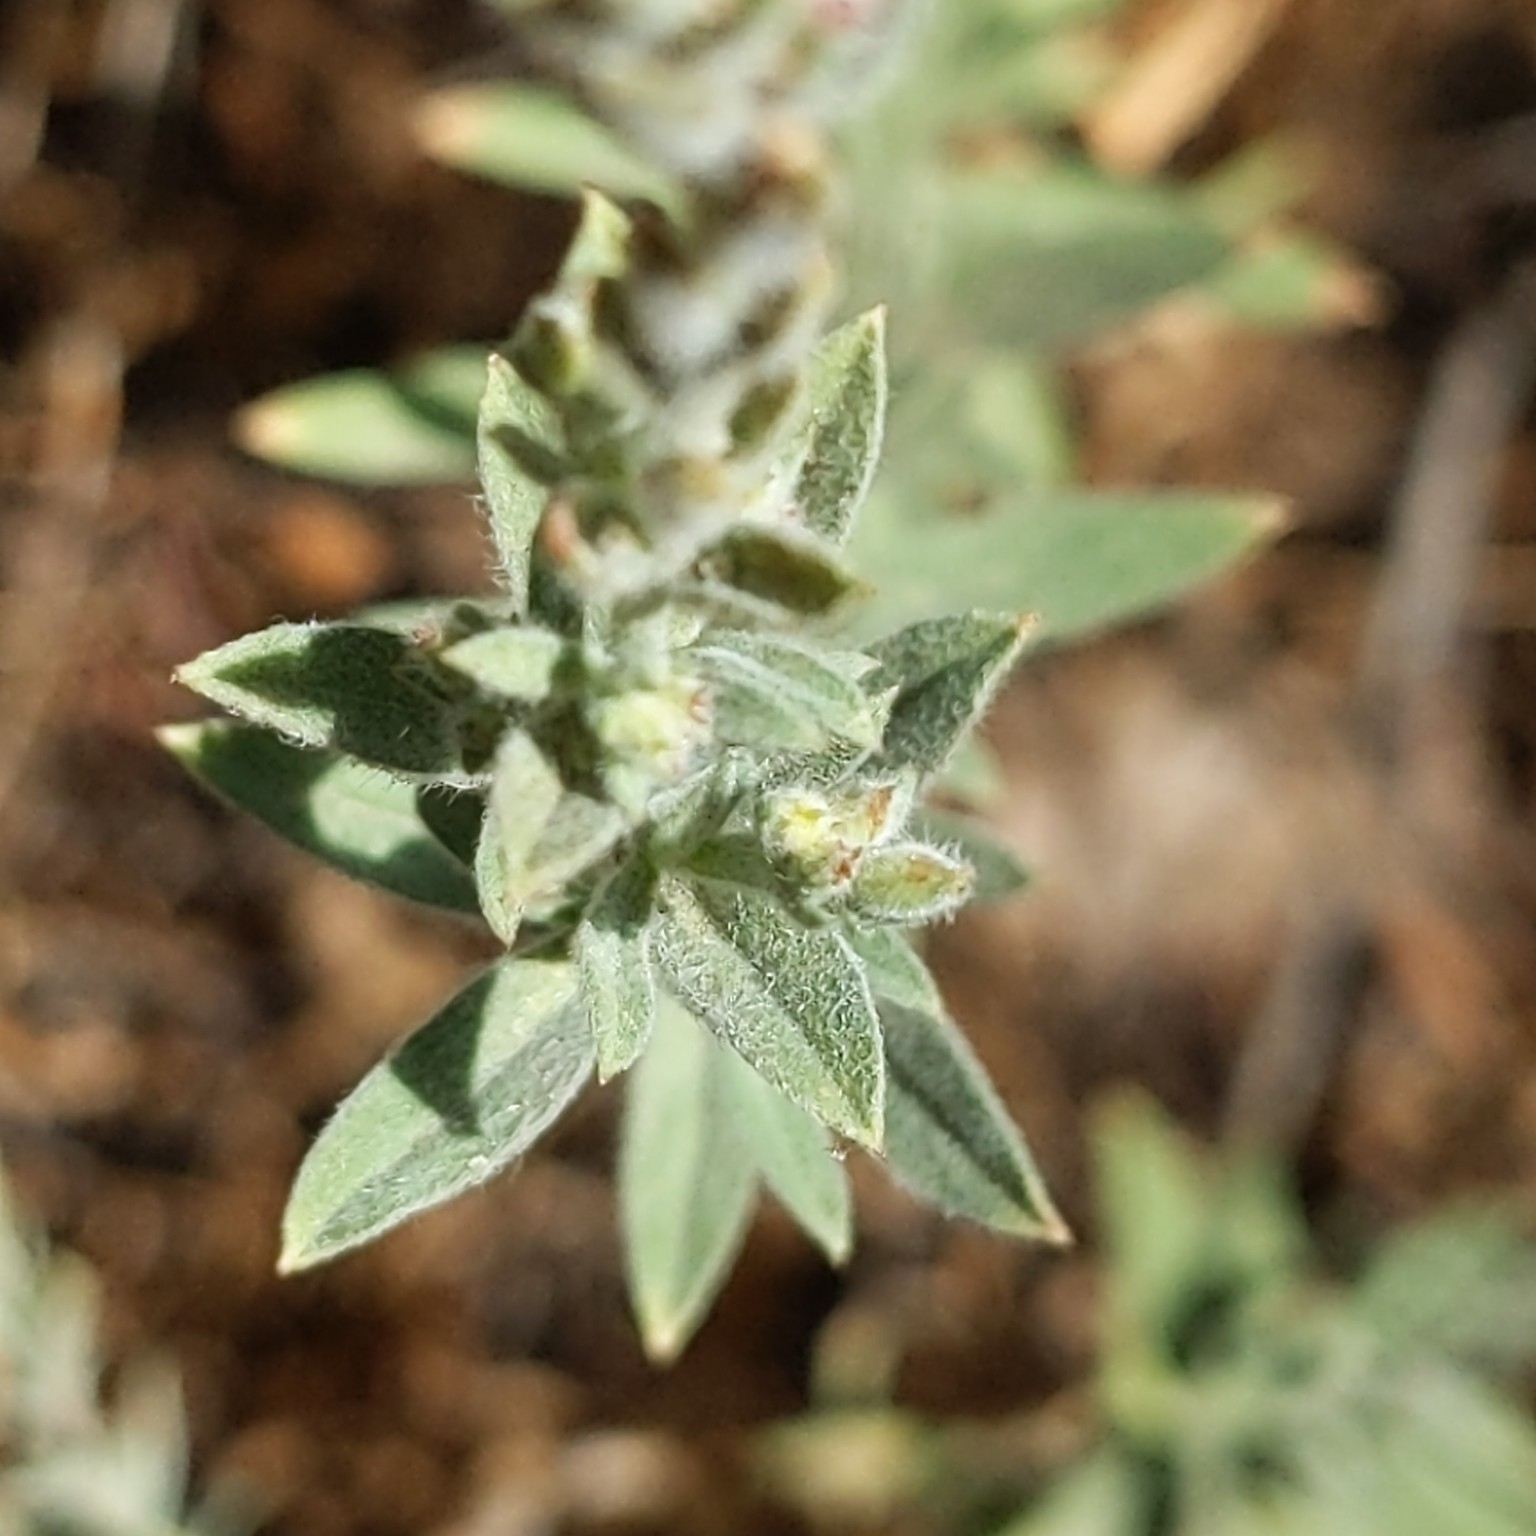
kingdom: Plantae
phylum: Tracheophyta
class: Magnoliopsida
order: Myrtales
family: Onagraceae
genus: Epilobium
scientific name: Epilobium canum
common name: California-fuchsia
